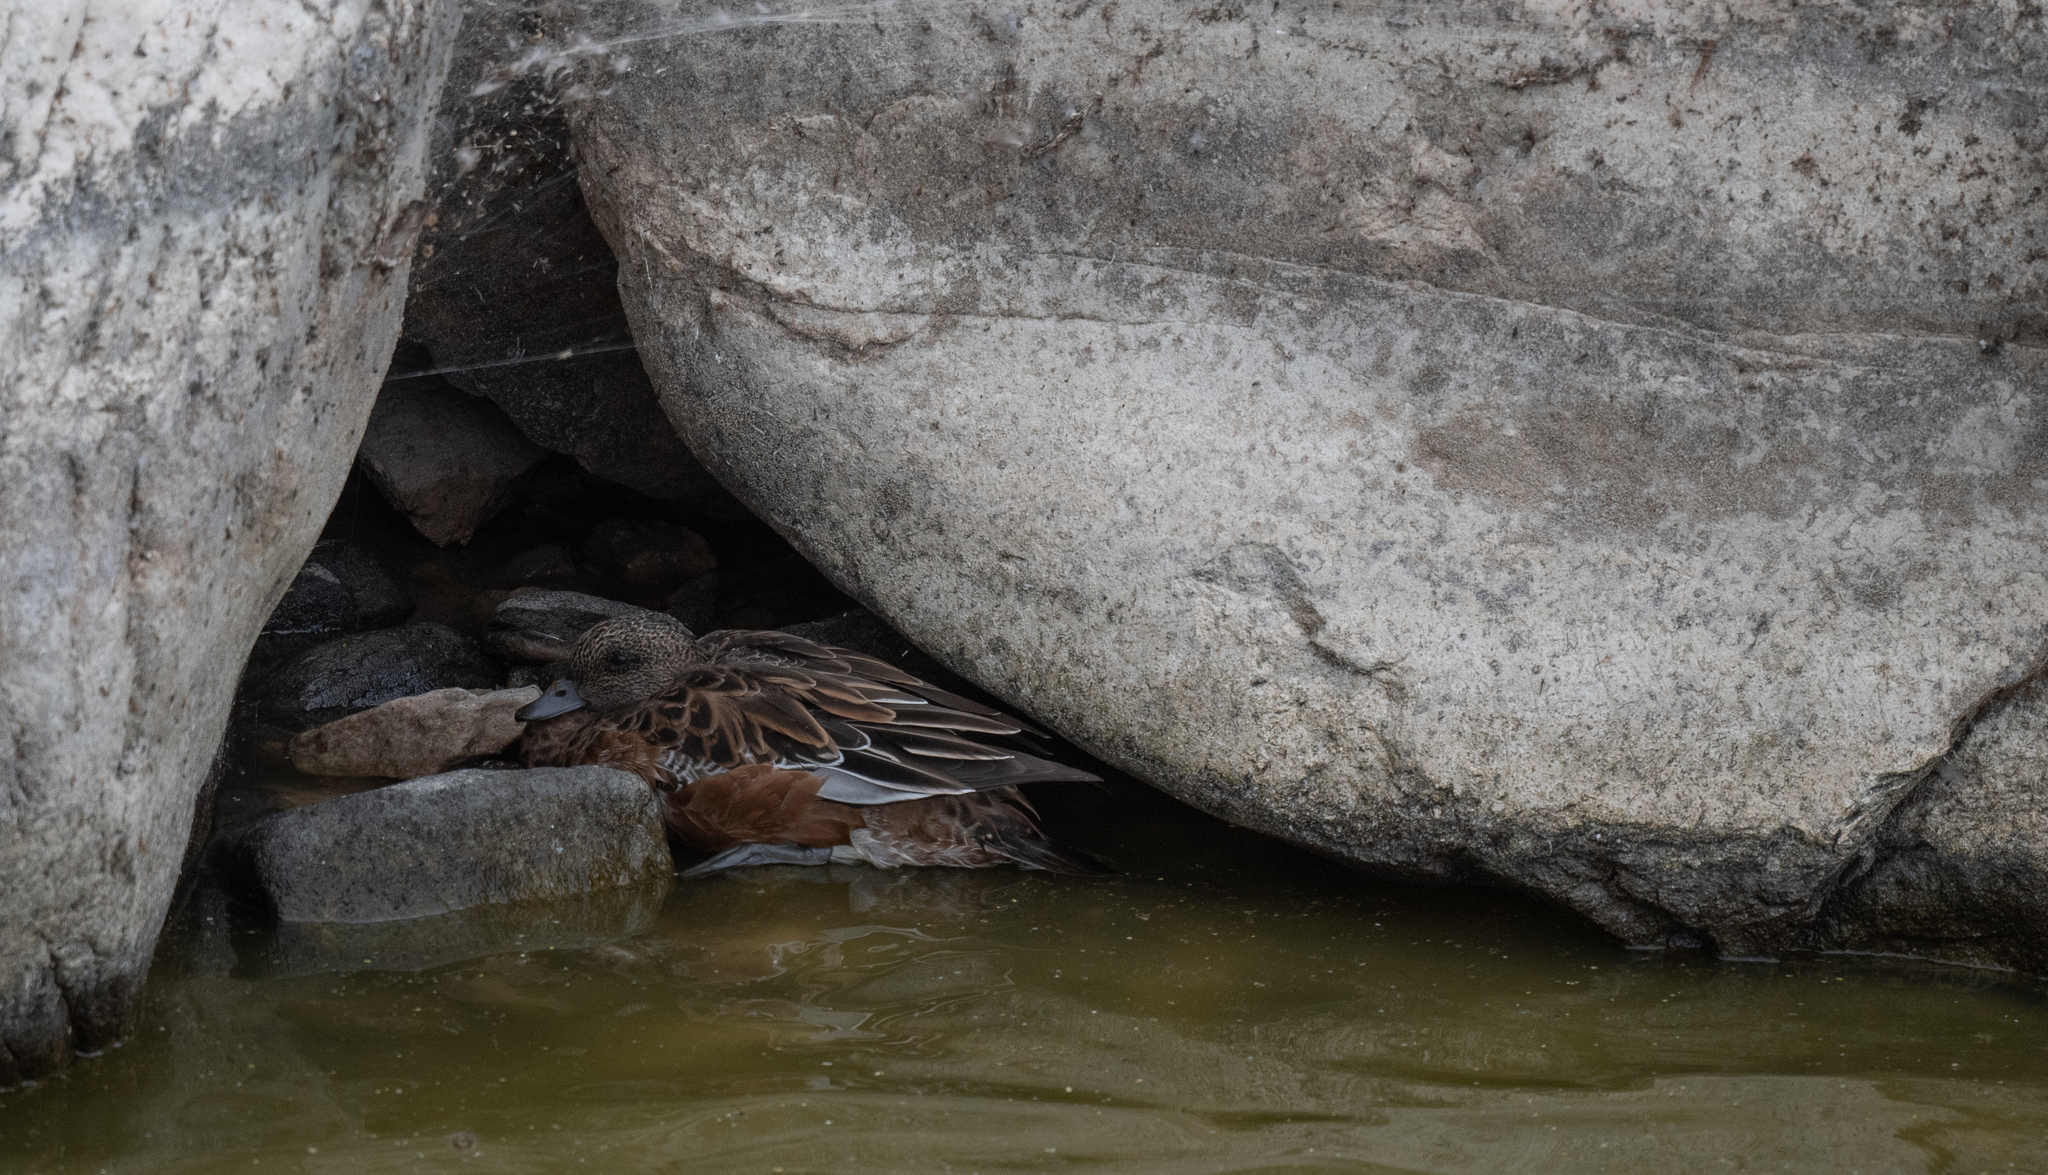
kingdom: Animalia
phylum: Chordata
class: Aves
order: Anseriformes
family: Anatidae
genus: Mareca
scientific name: Mareca americana
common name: American wigeon
